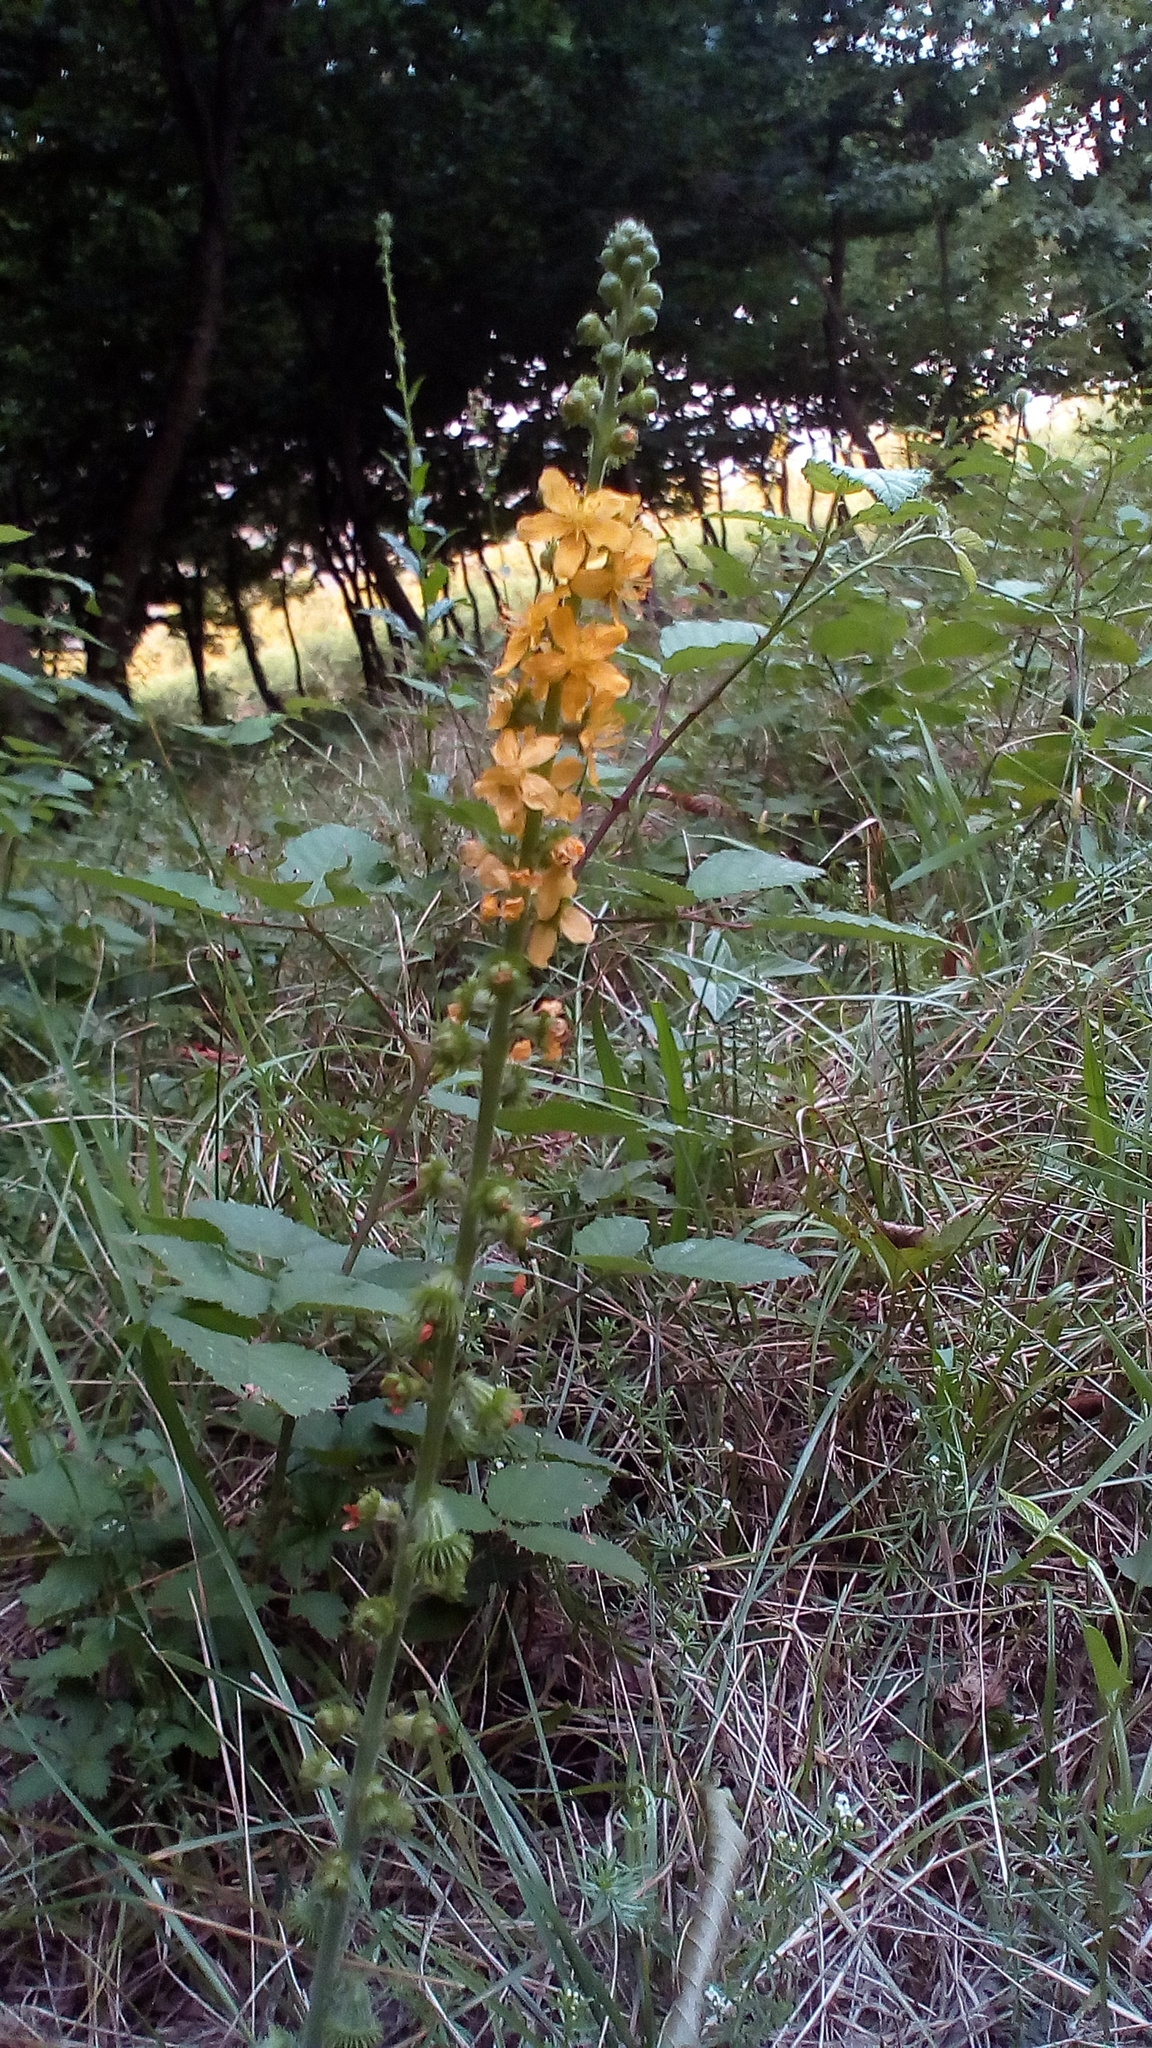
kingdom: Plantae
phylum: Tracheophyta
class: Magnoliopsida
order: Rosales
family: Rosaceae
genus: Agrimonia
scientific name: Agrimonia eupatoria
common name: Agrimony
